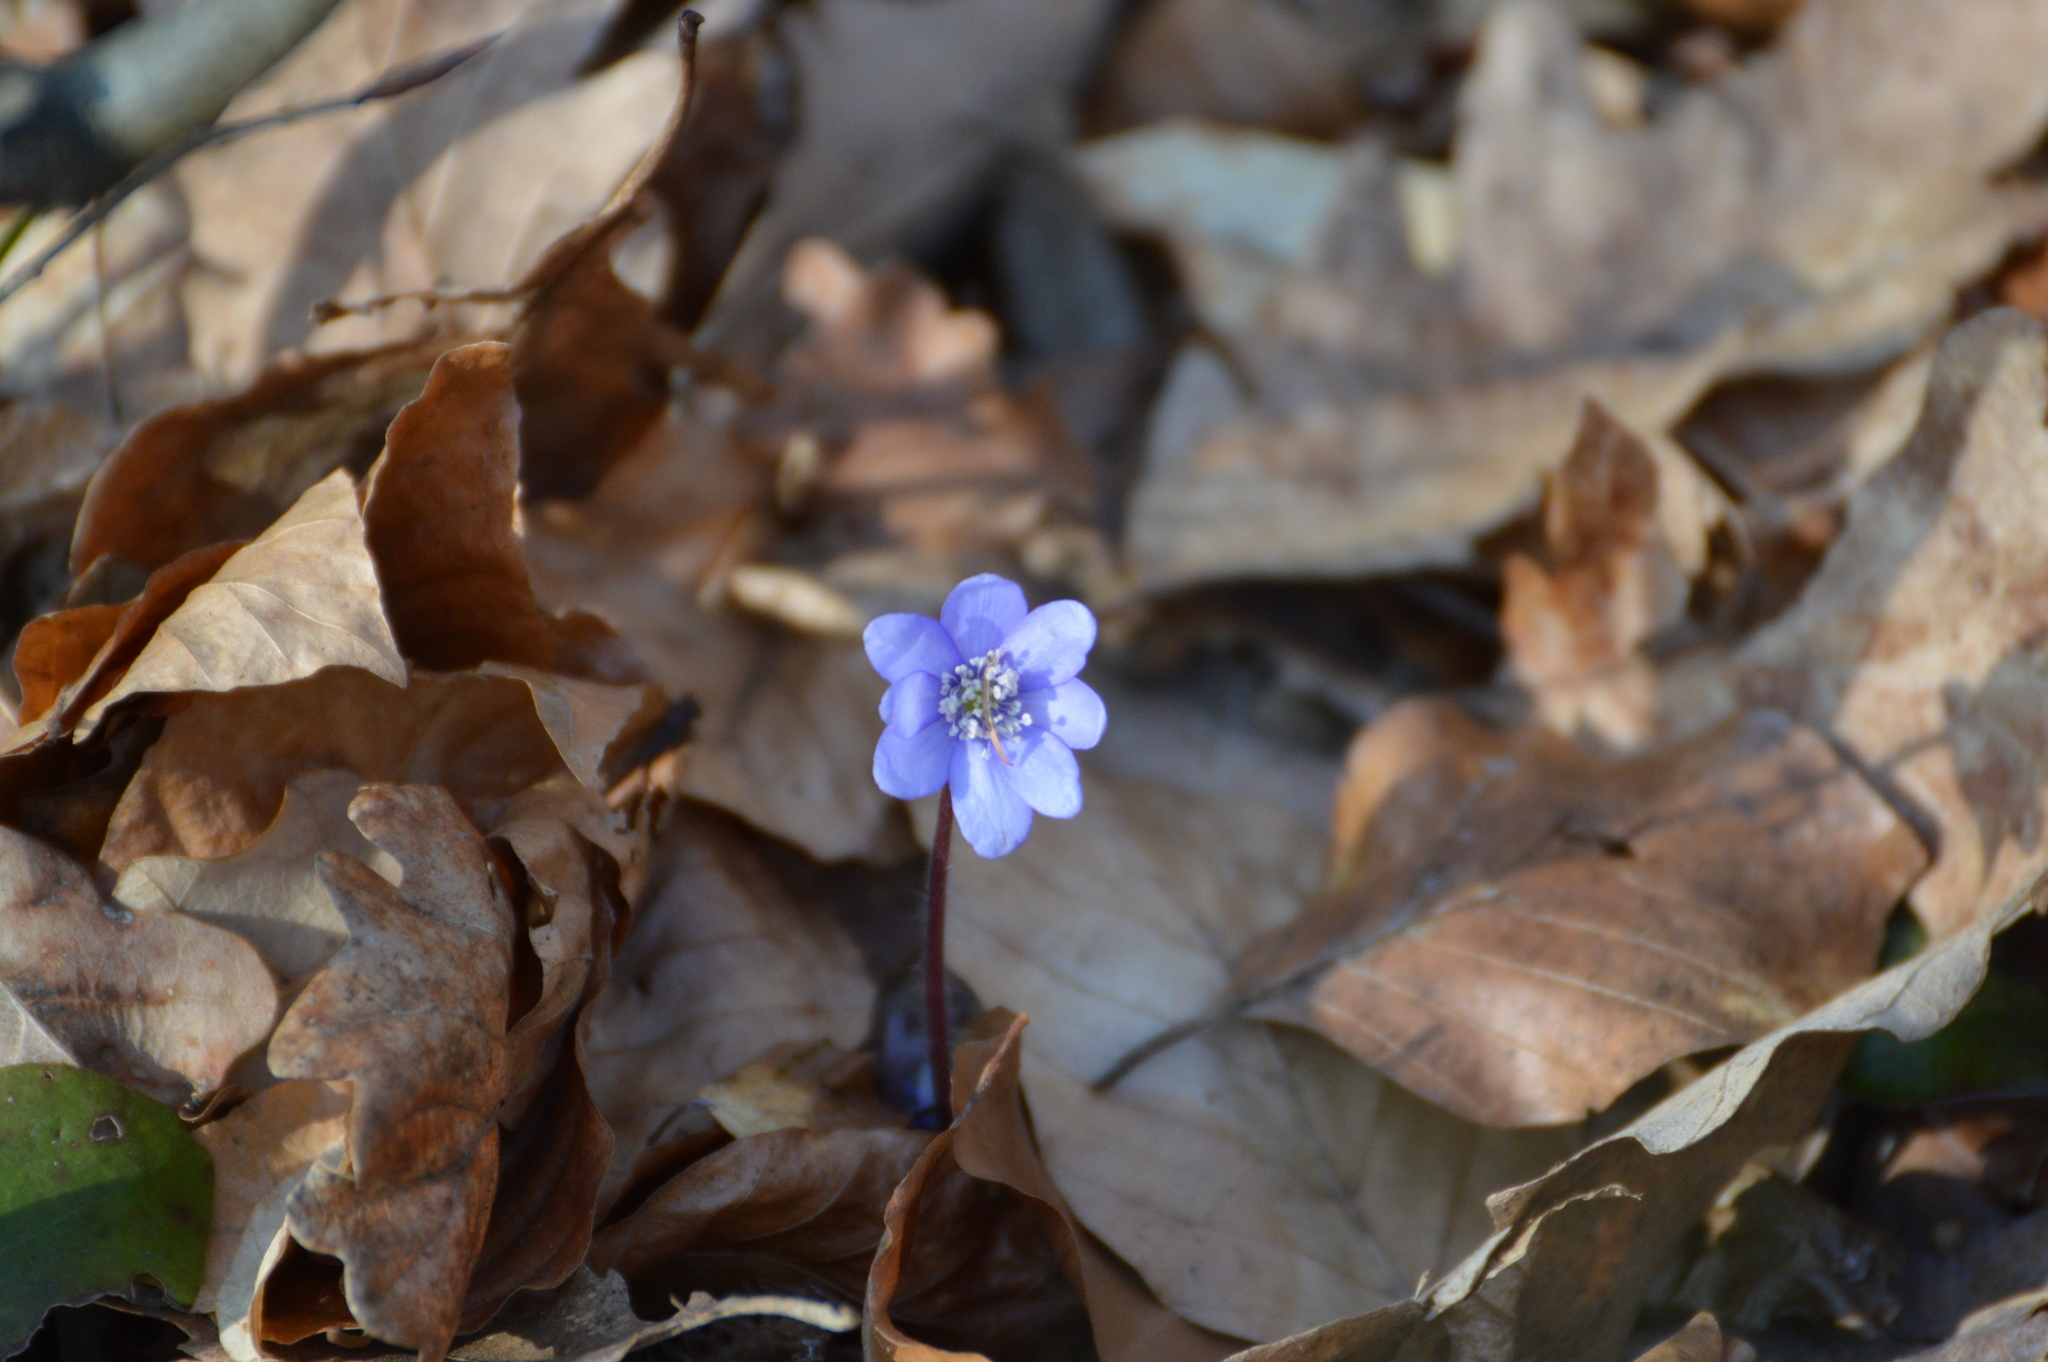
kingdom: Plantae
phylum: Tracheophyta
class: Magnoliopsida
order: Ranunculales
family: Ranunculaceae
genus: Hepatica
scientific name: Hepatica nobilis
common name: Liverleaf
